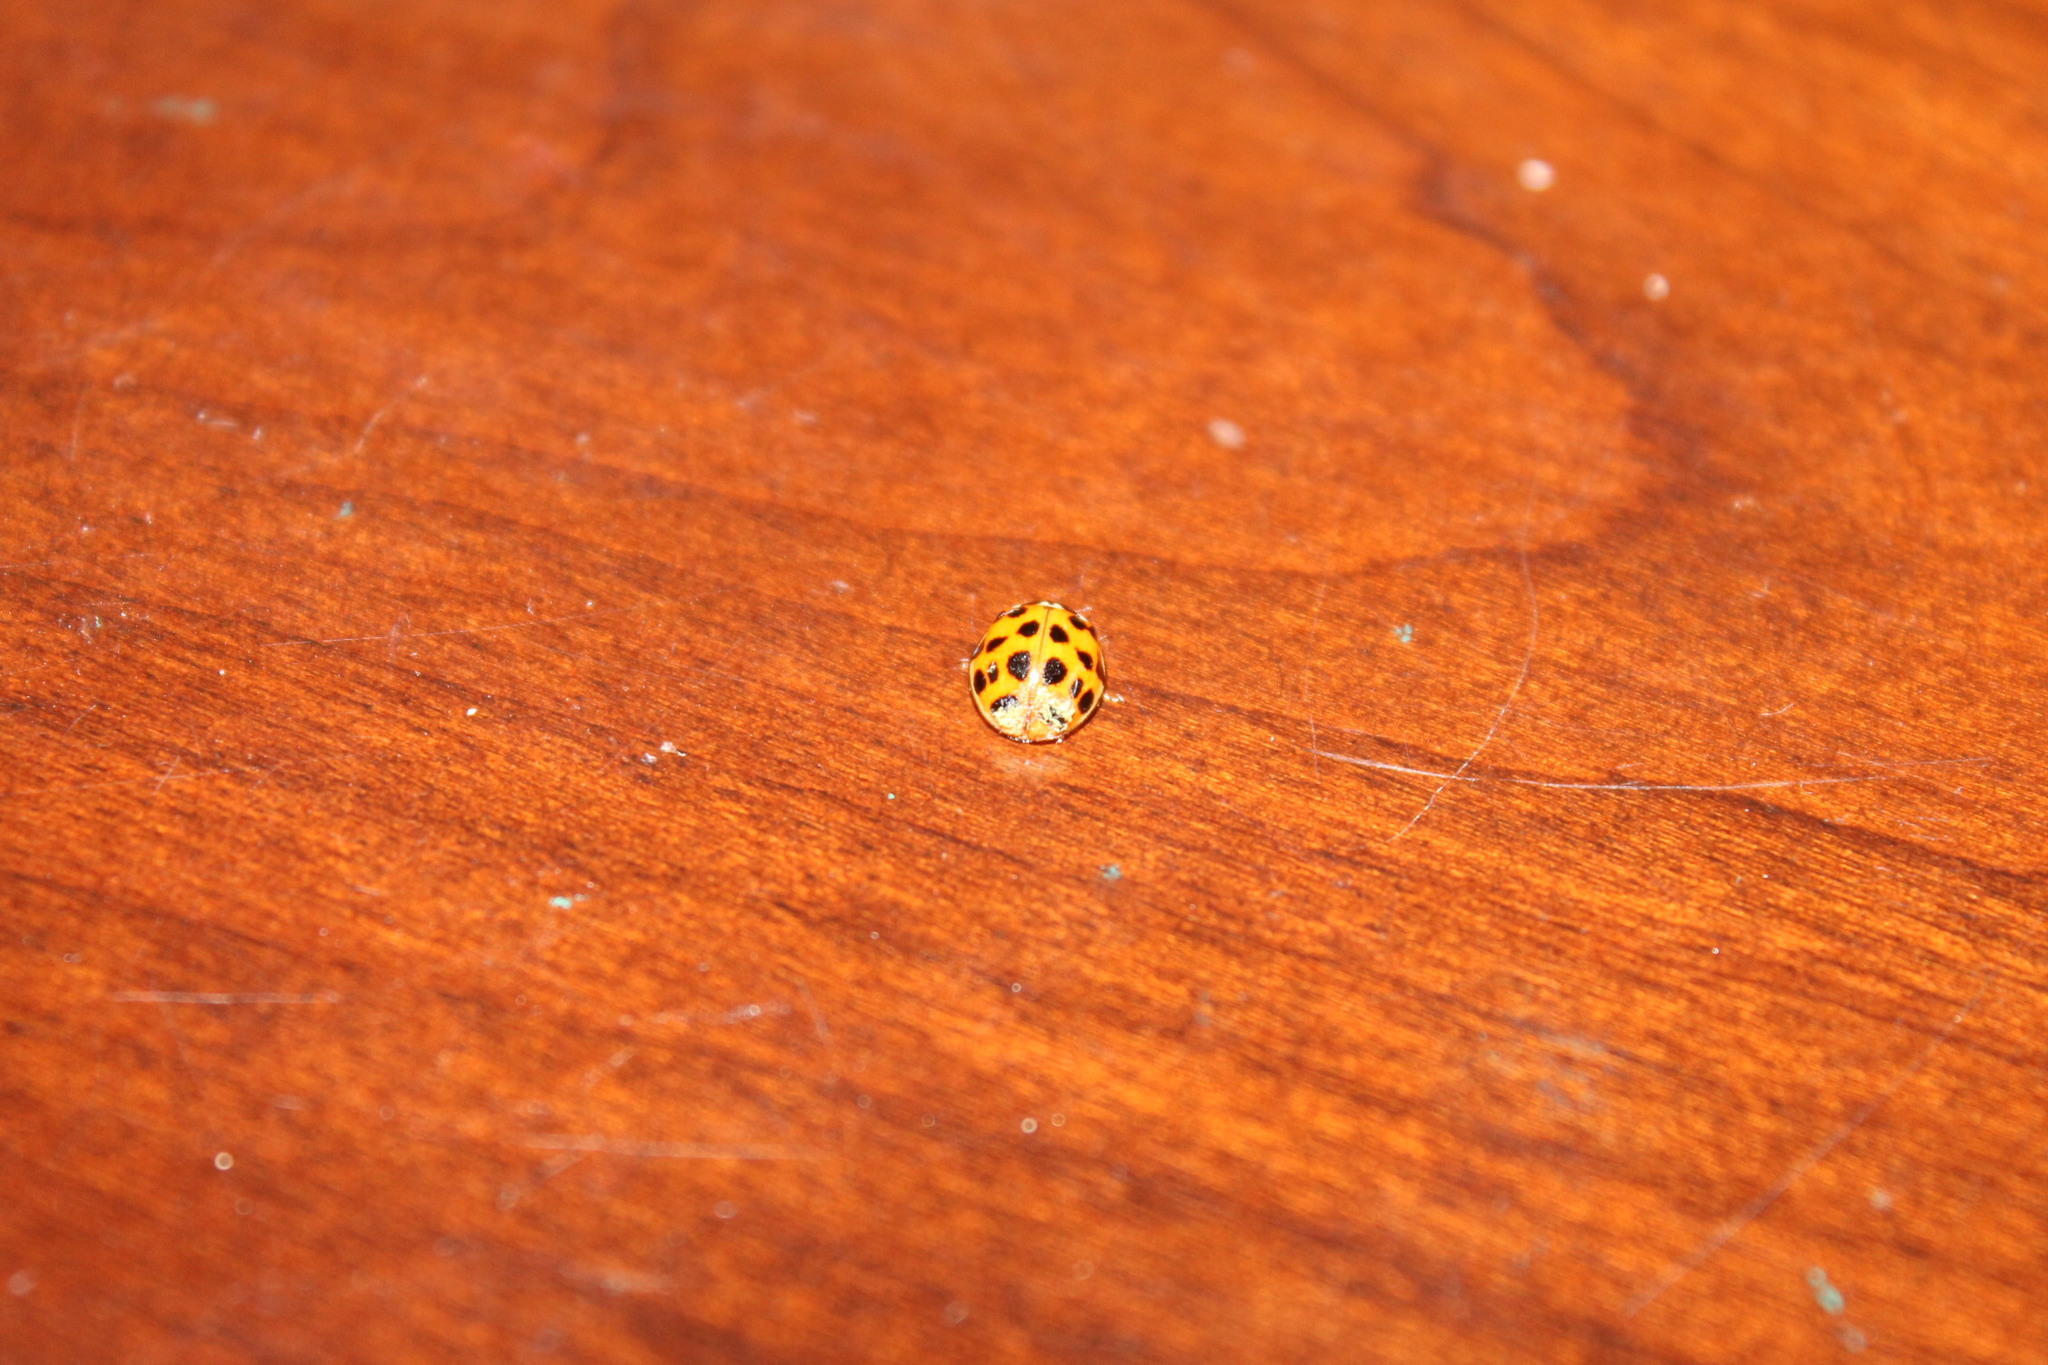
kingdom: Fungi
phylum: Ascomycota
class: Laboulbeniomycetes
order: Laboulbeniales
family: Laboulbeniaceae
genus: Hesperomyces
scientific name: Hesperomyces harmoniae
